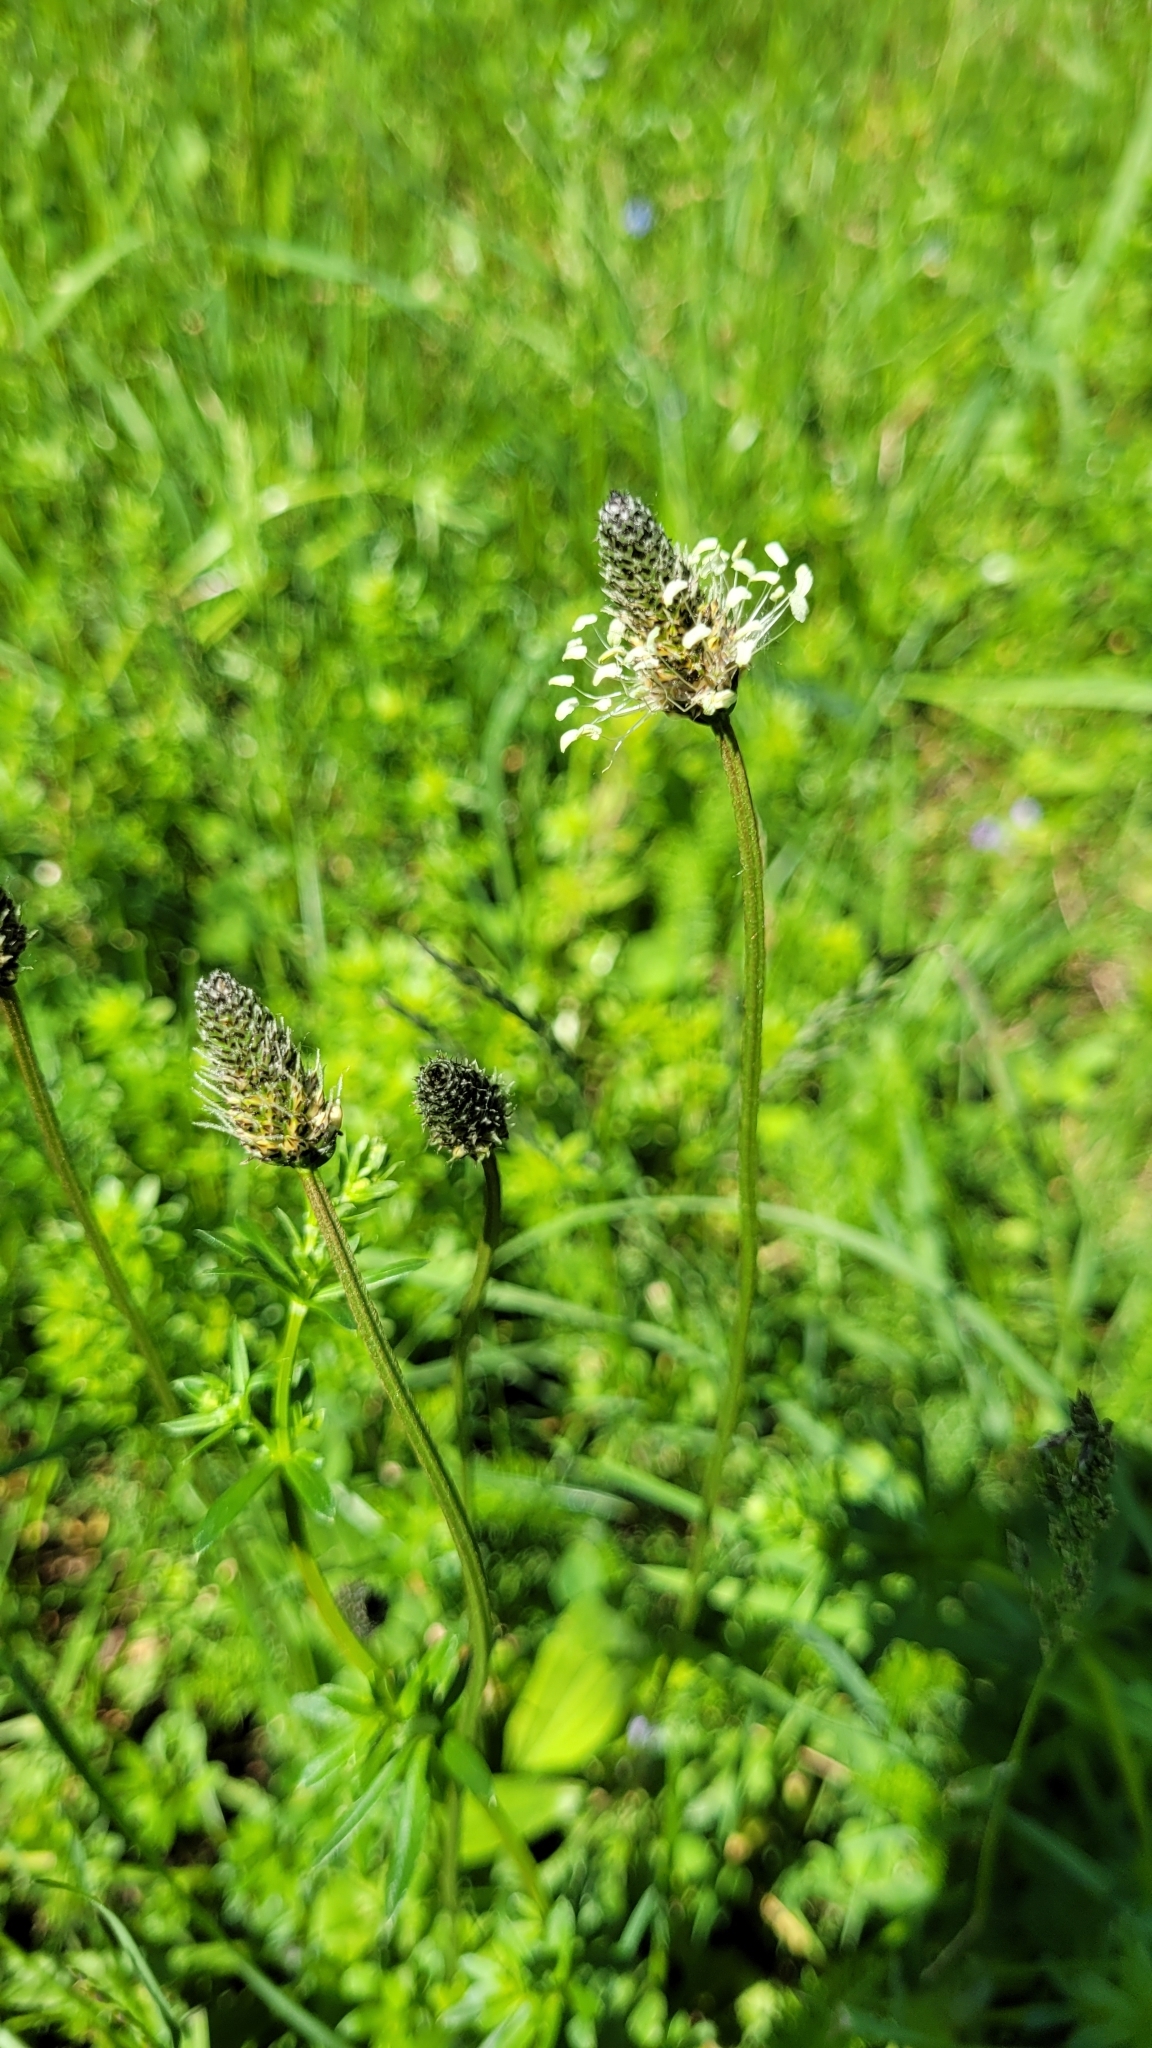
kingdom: Plantae
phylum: Tracheophyta
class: Magnoliopsida
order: Lamiales
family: Plantaginaceae
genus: Plantago
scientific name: Plantago lanceolata
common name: Ribwort plantain
